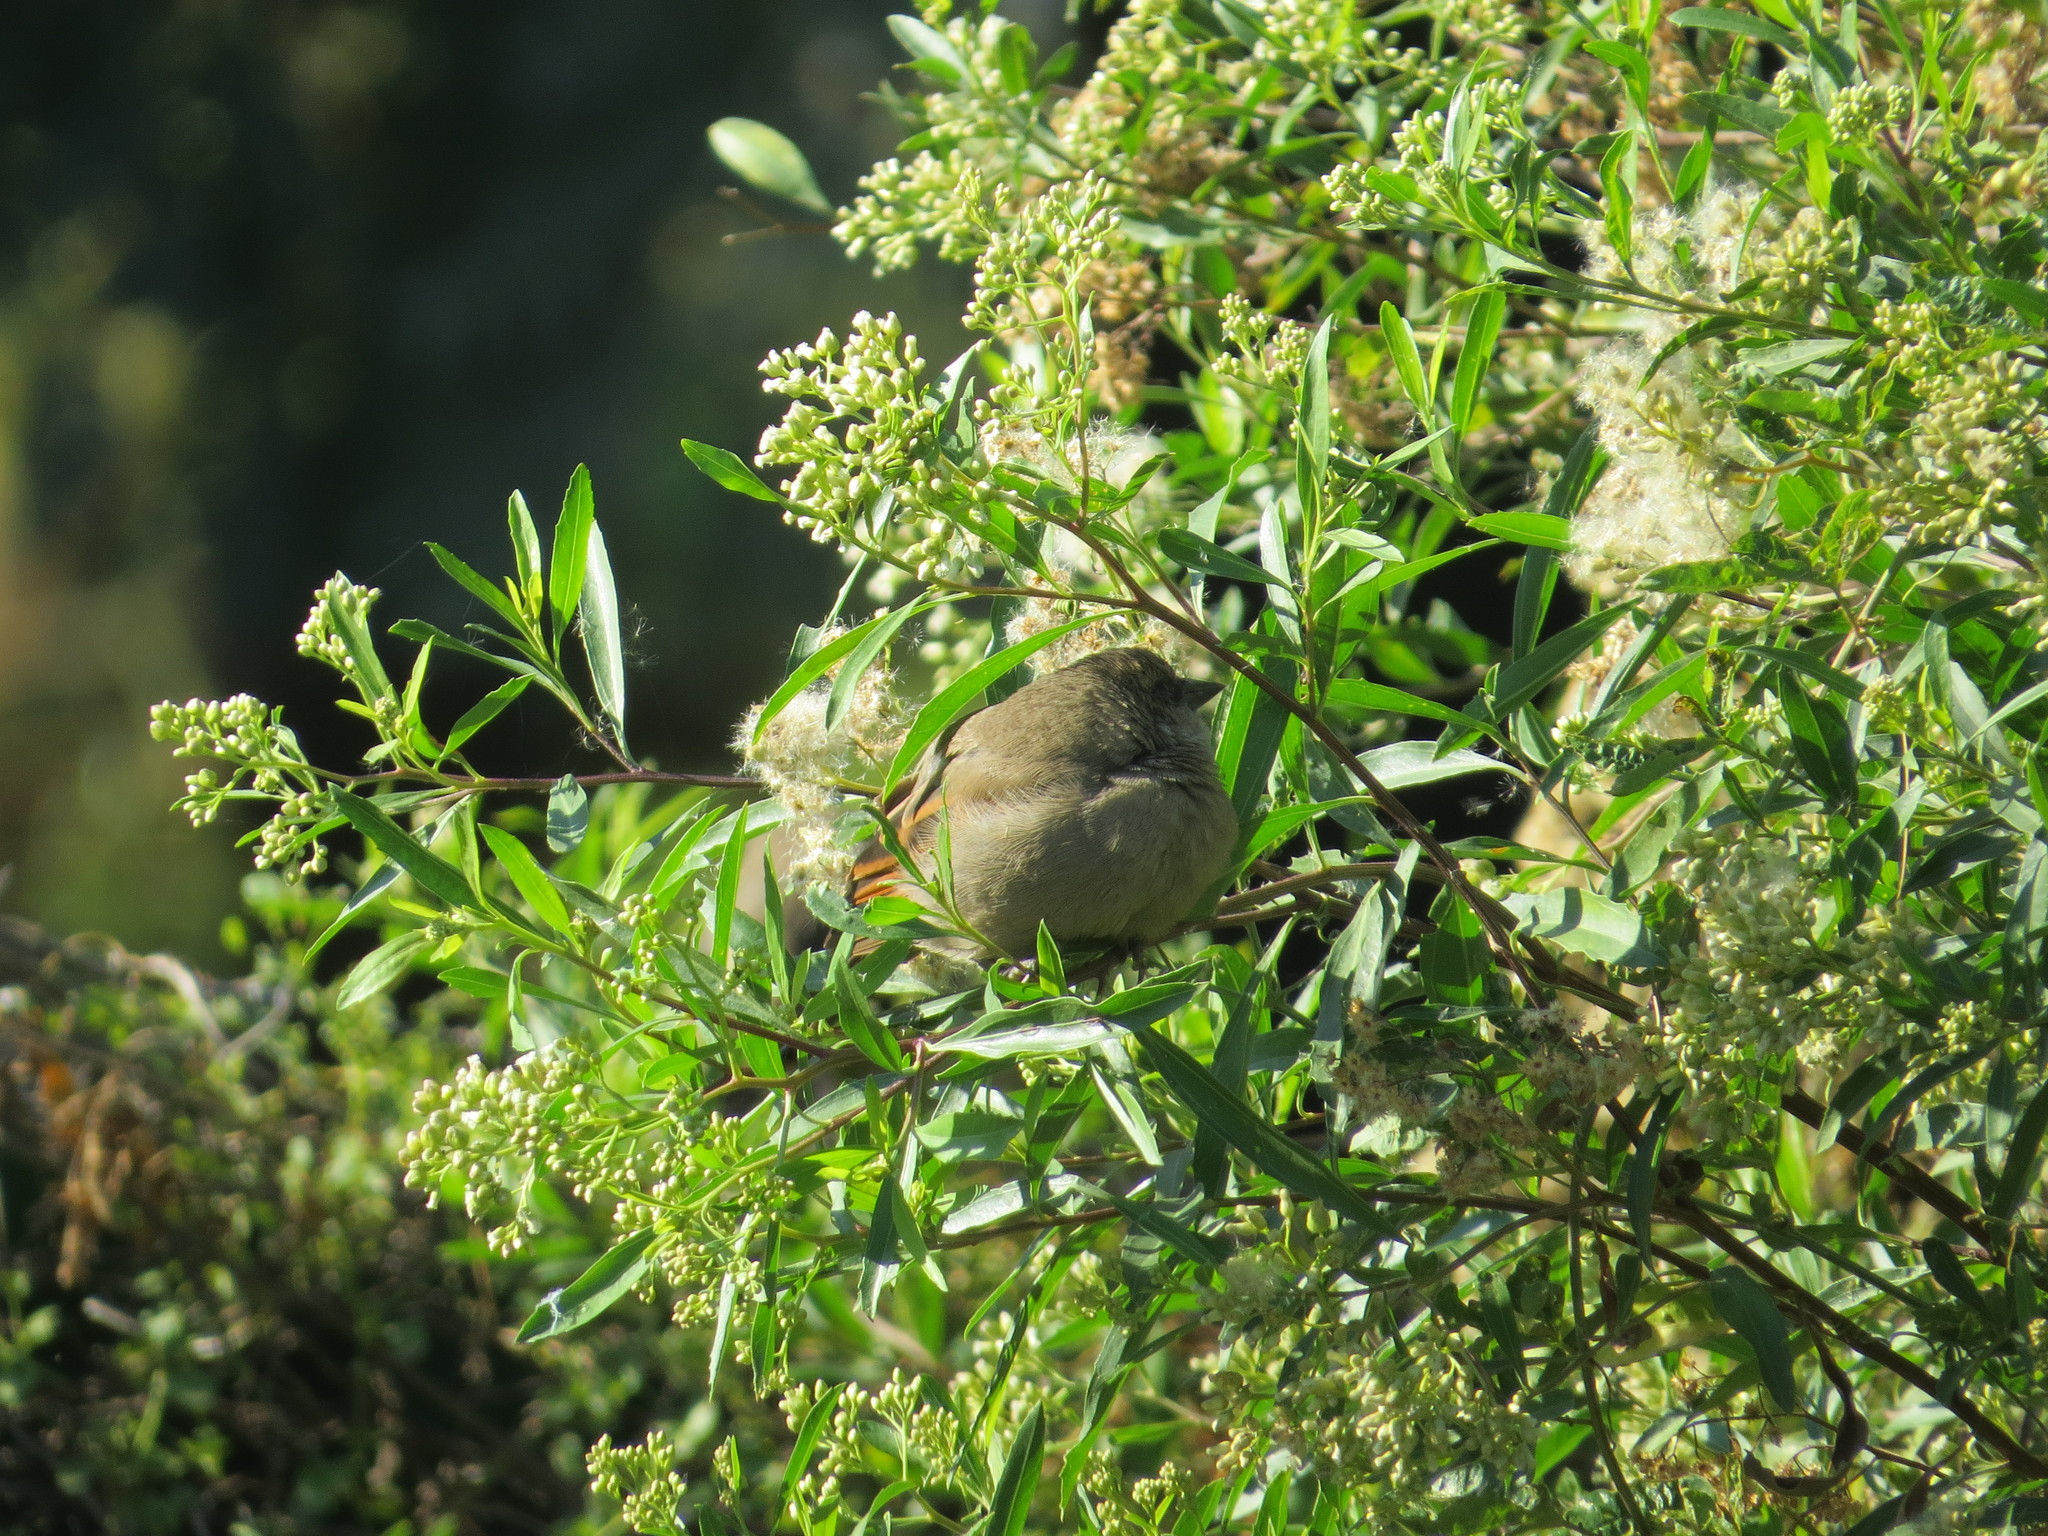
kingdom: Animalia
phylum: Chordata
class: Aves
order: Passeriformes
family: Icteridae
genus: Agelaioides
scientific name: Agelaioides badius
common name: Baywing
